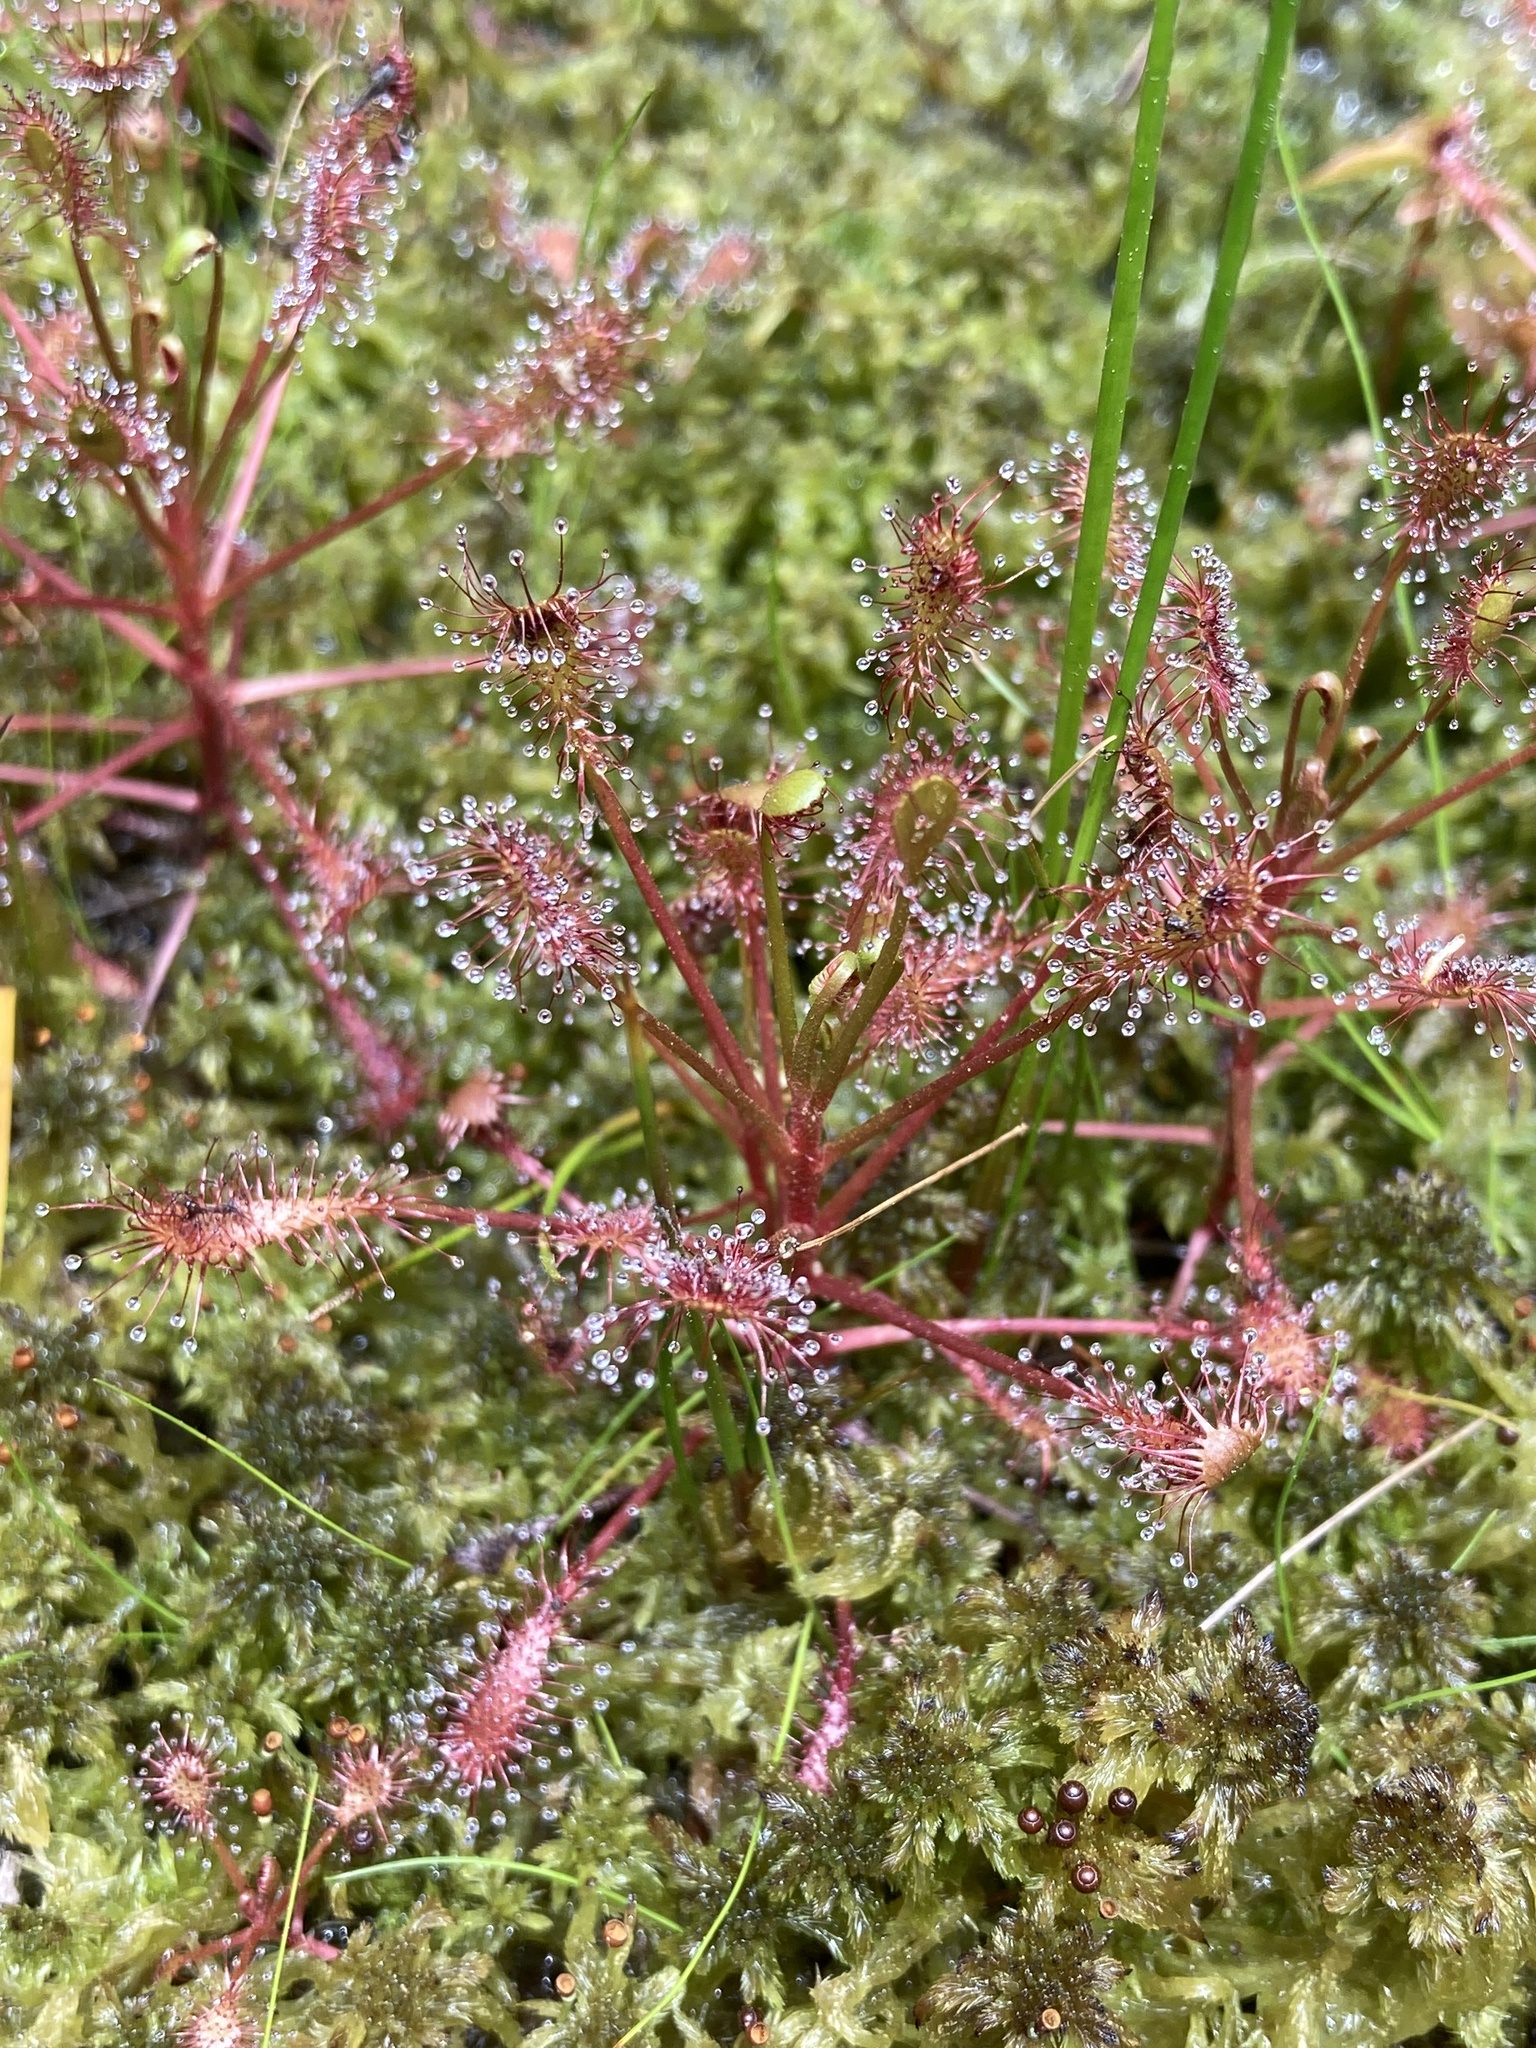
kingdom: Plantae
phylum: Tracheophyta
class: Magnoliopsida
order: Caryophyllales
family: Droseraceae
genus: Drosera
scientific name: Drosera intermedia
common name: Oblong-leaved sundew
